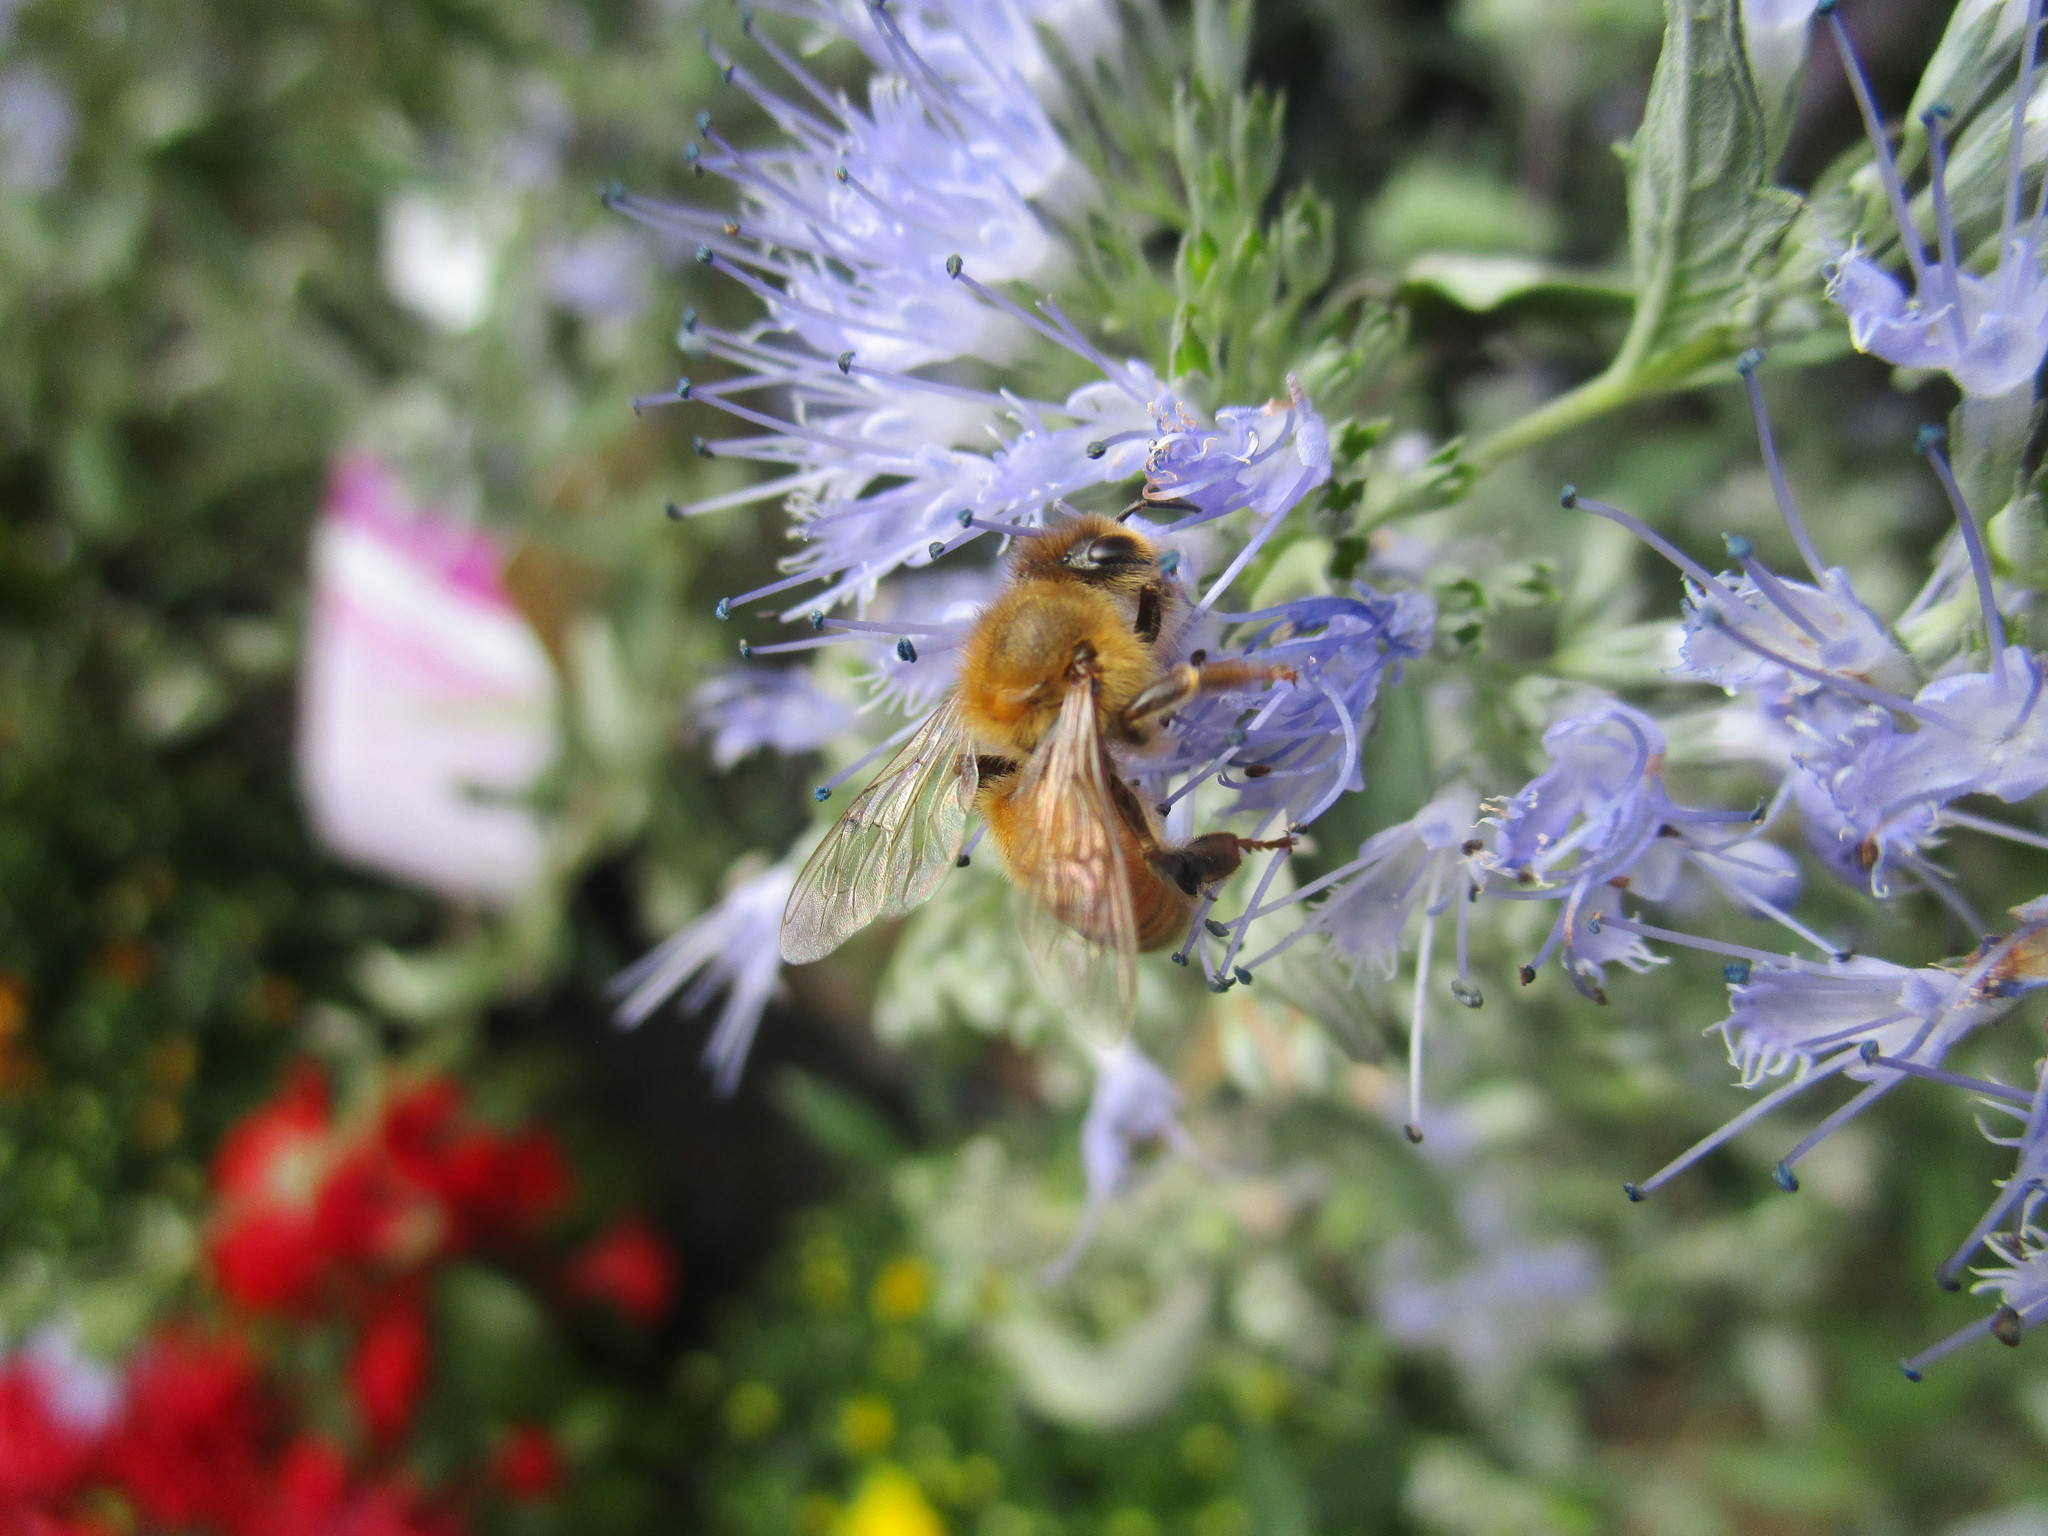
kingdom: Animalia
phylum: Arthropoda
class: Insecta
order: Hymenoptera
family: Apidae
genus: Apis
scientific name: Apis mellifera
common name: Honey bee
